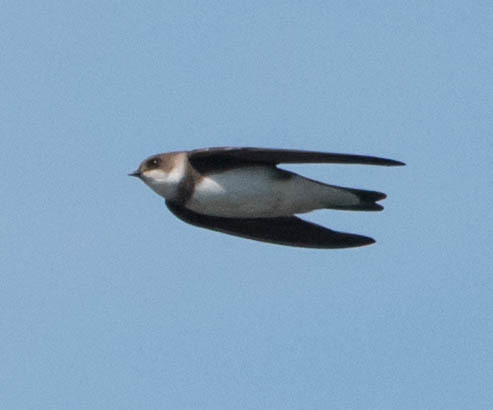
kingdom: Animalia
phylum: Chordata
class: Aves
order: Passeriformes
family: Hirundinidae
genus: Riparia
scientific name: Riparia riparia
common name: Sand martin
